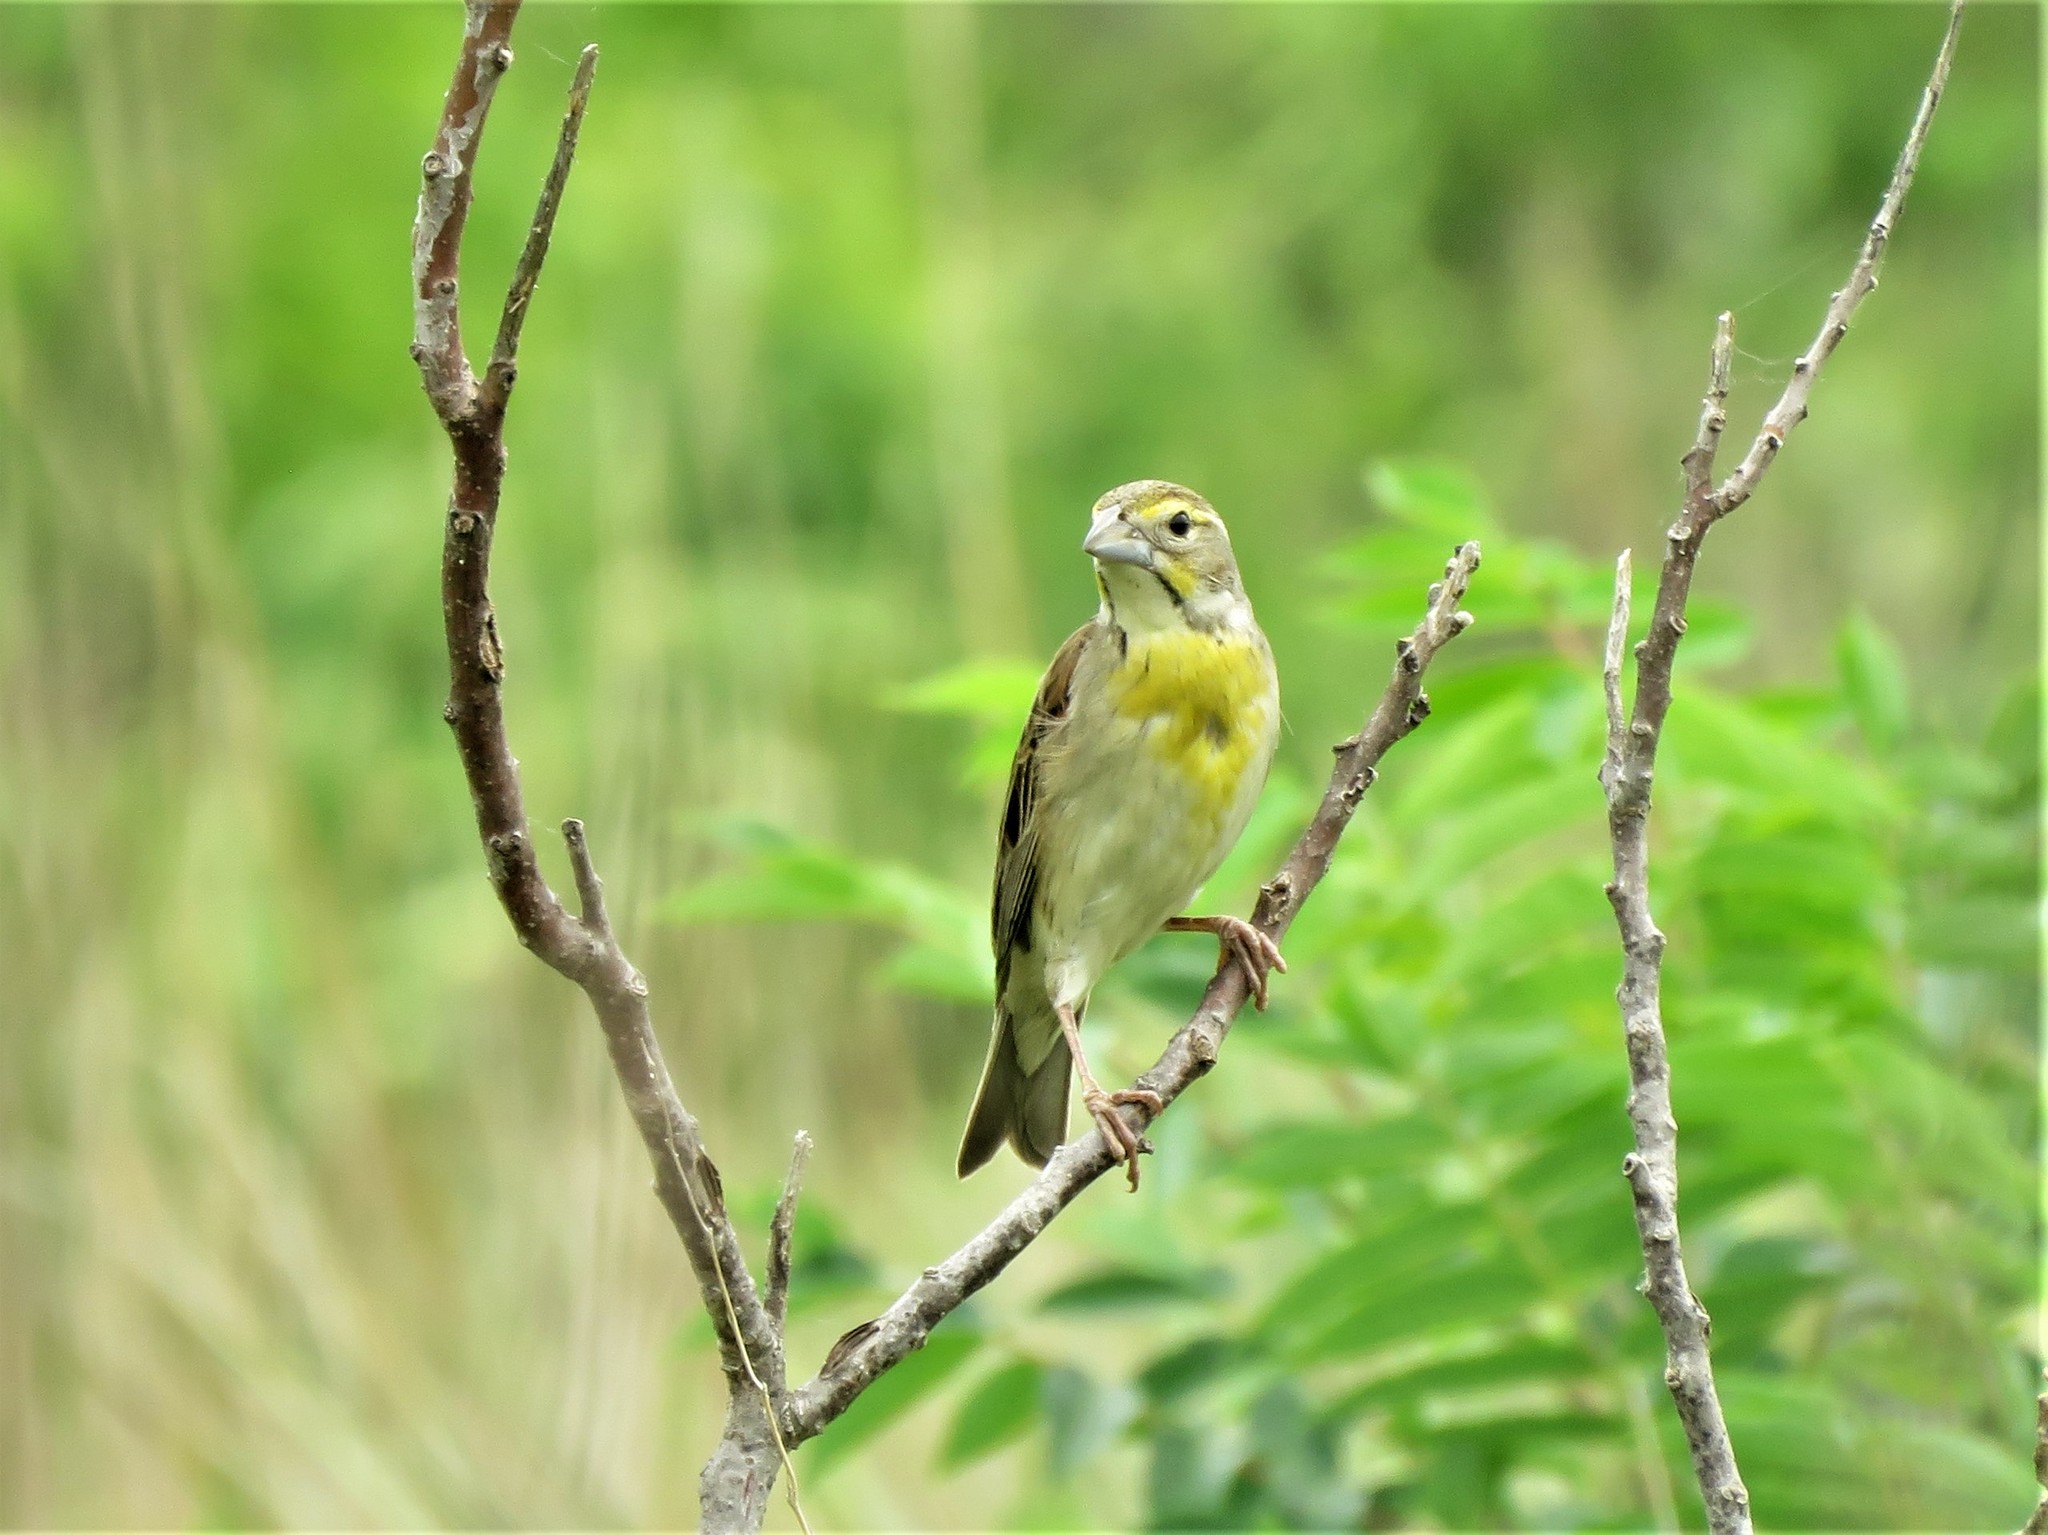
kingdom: Animalia
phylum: Chordata
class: Aves
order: Passeriformes
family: Cardinalidae
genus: Spiza
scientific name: Spiza americana
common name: Dickcissel
